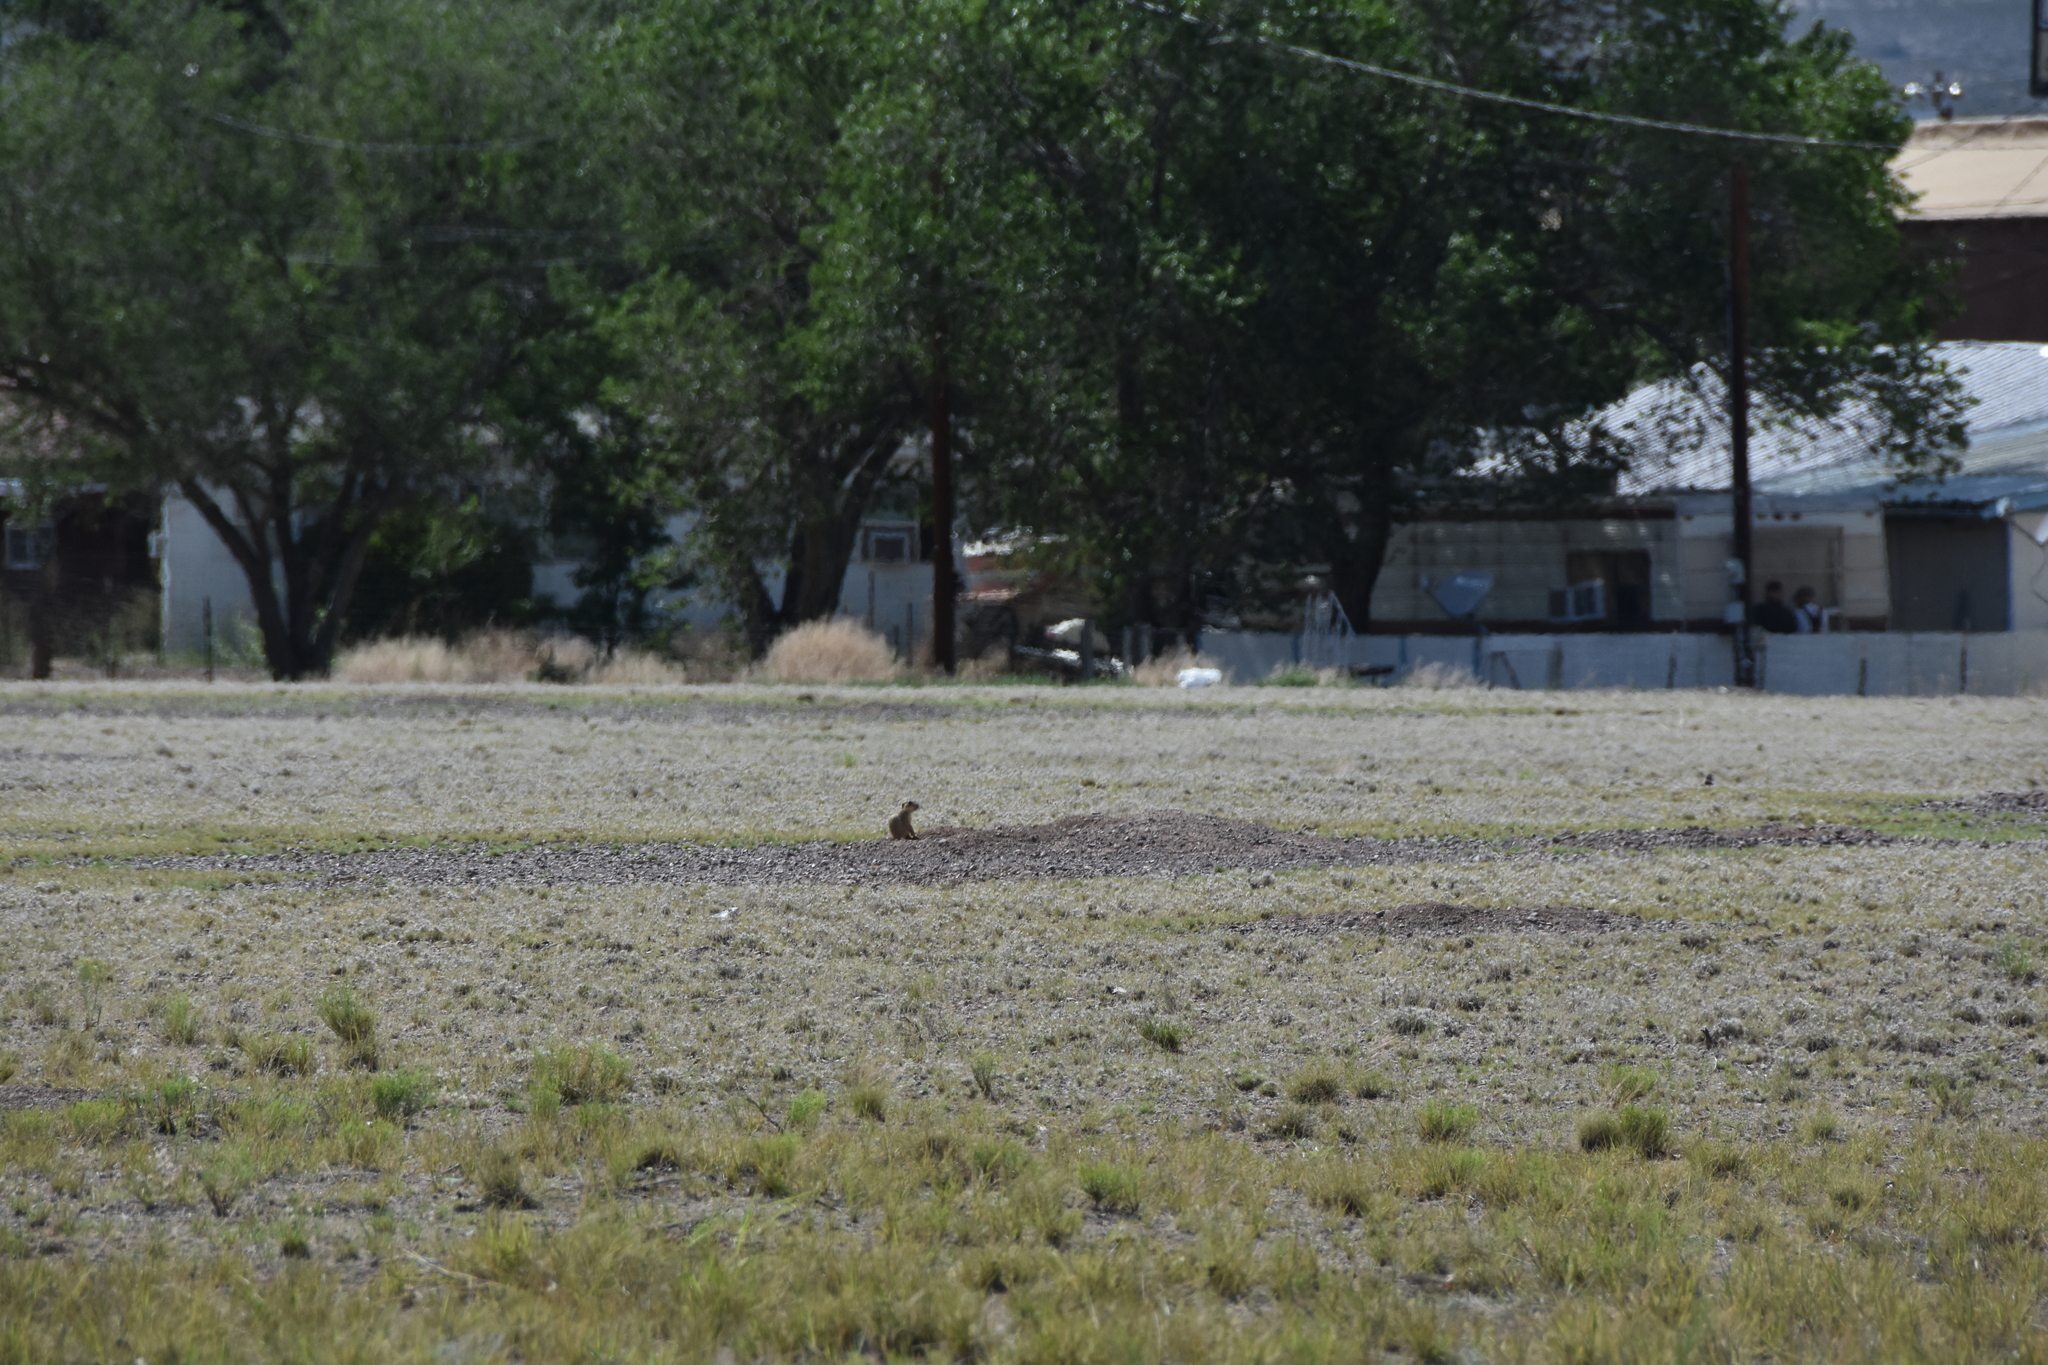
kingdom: Animalia
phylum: Chordata
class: Mammalia
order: Rodentia
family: Sciuridae
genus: Cynomys
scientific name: Cynomys gunnisoni
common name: Gunnison's prairie dog
